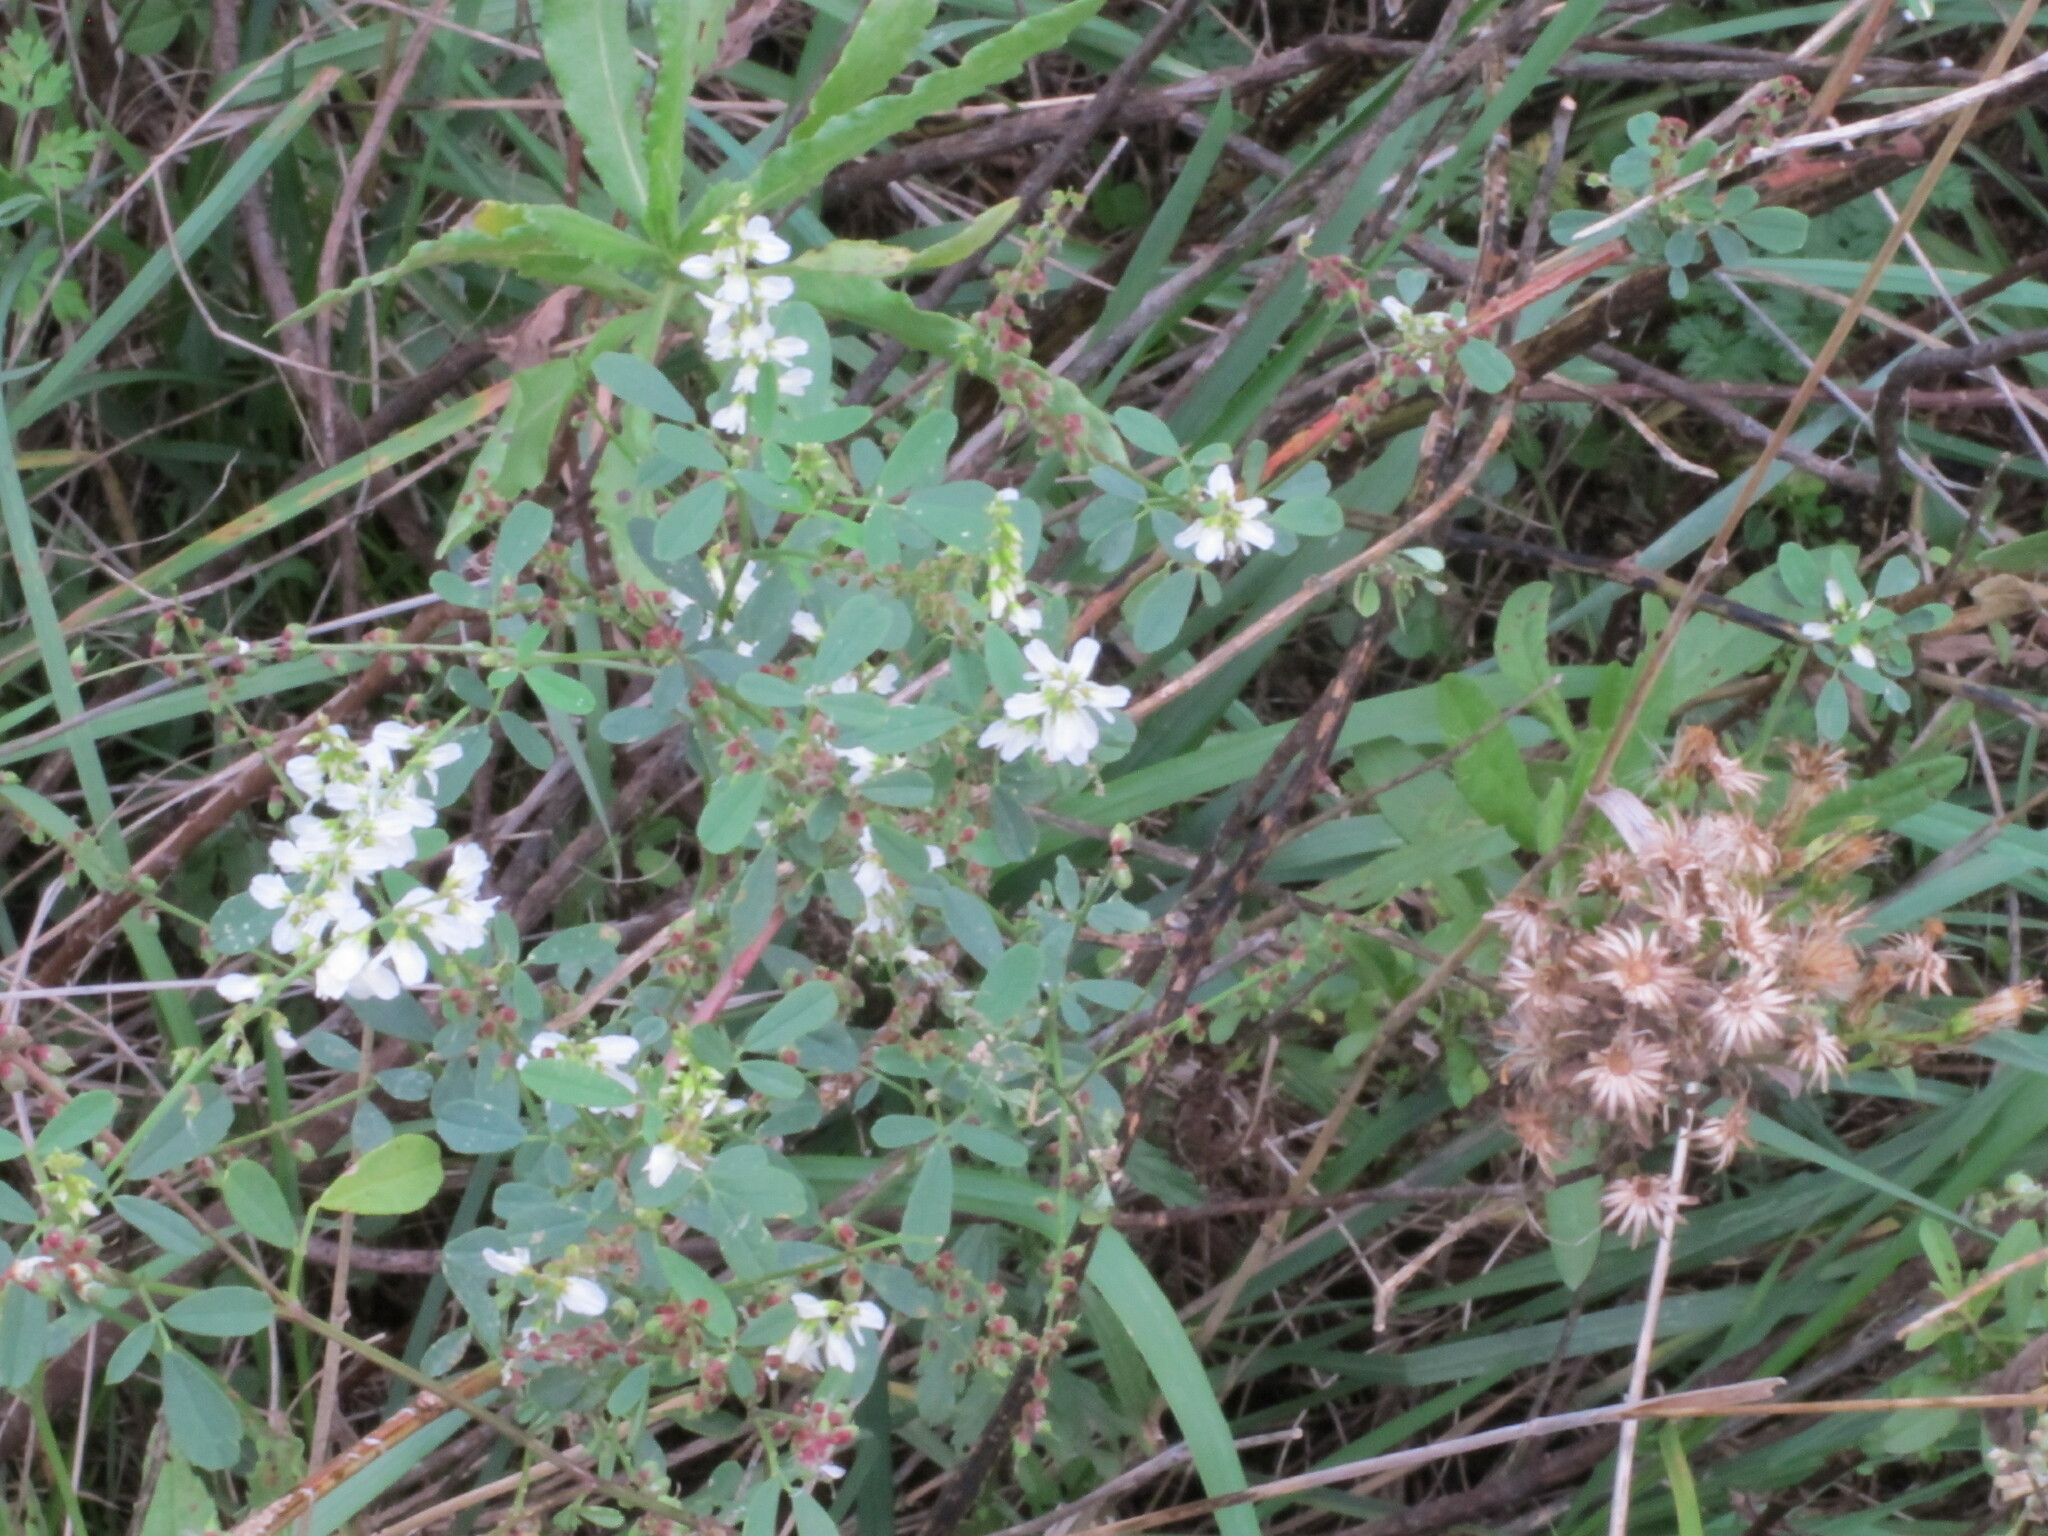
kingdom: Plantae
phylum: Tracheophyta
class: Magnoliopsida
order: Fabales
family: Fabaceae
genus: Melilotus
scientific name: Melilotus albus
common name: White melilot
